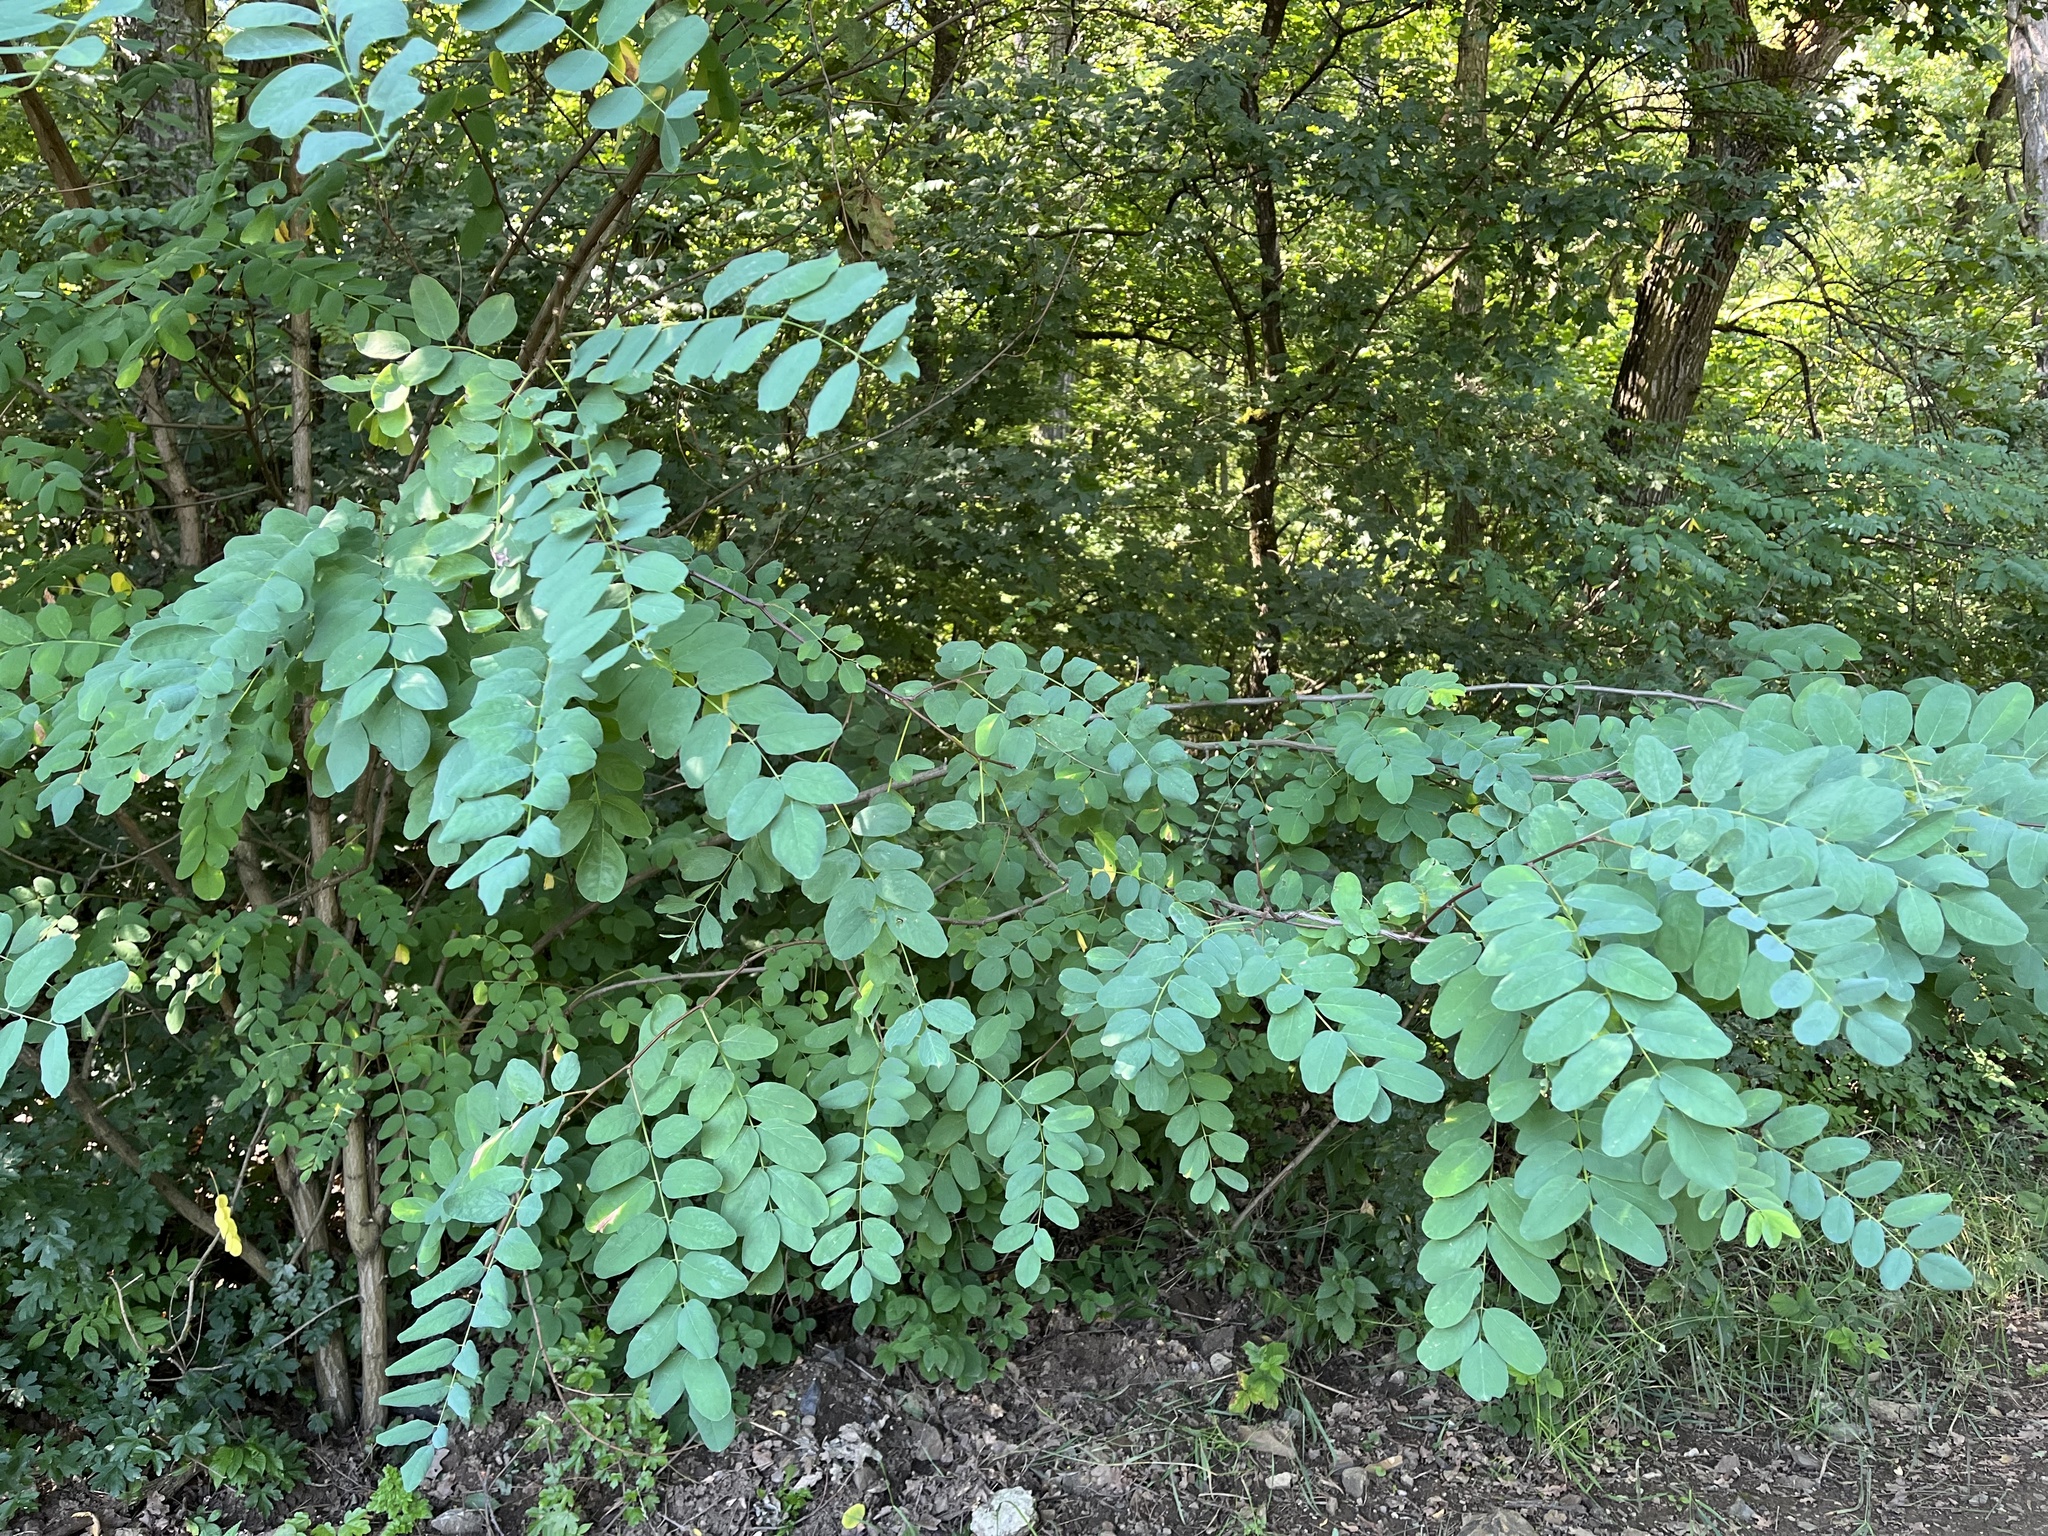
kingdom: Plantae
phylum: Tracheophyta
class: Magnoliopsida
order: Fabales
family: Fabaceae
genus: Robinia
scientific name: Robinia pseudoacacia
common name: Black locust
